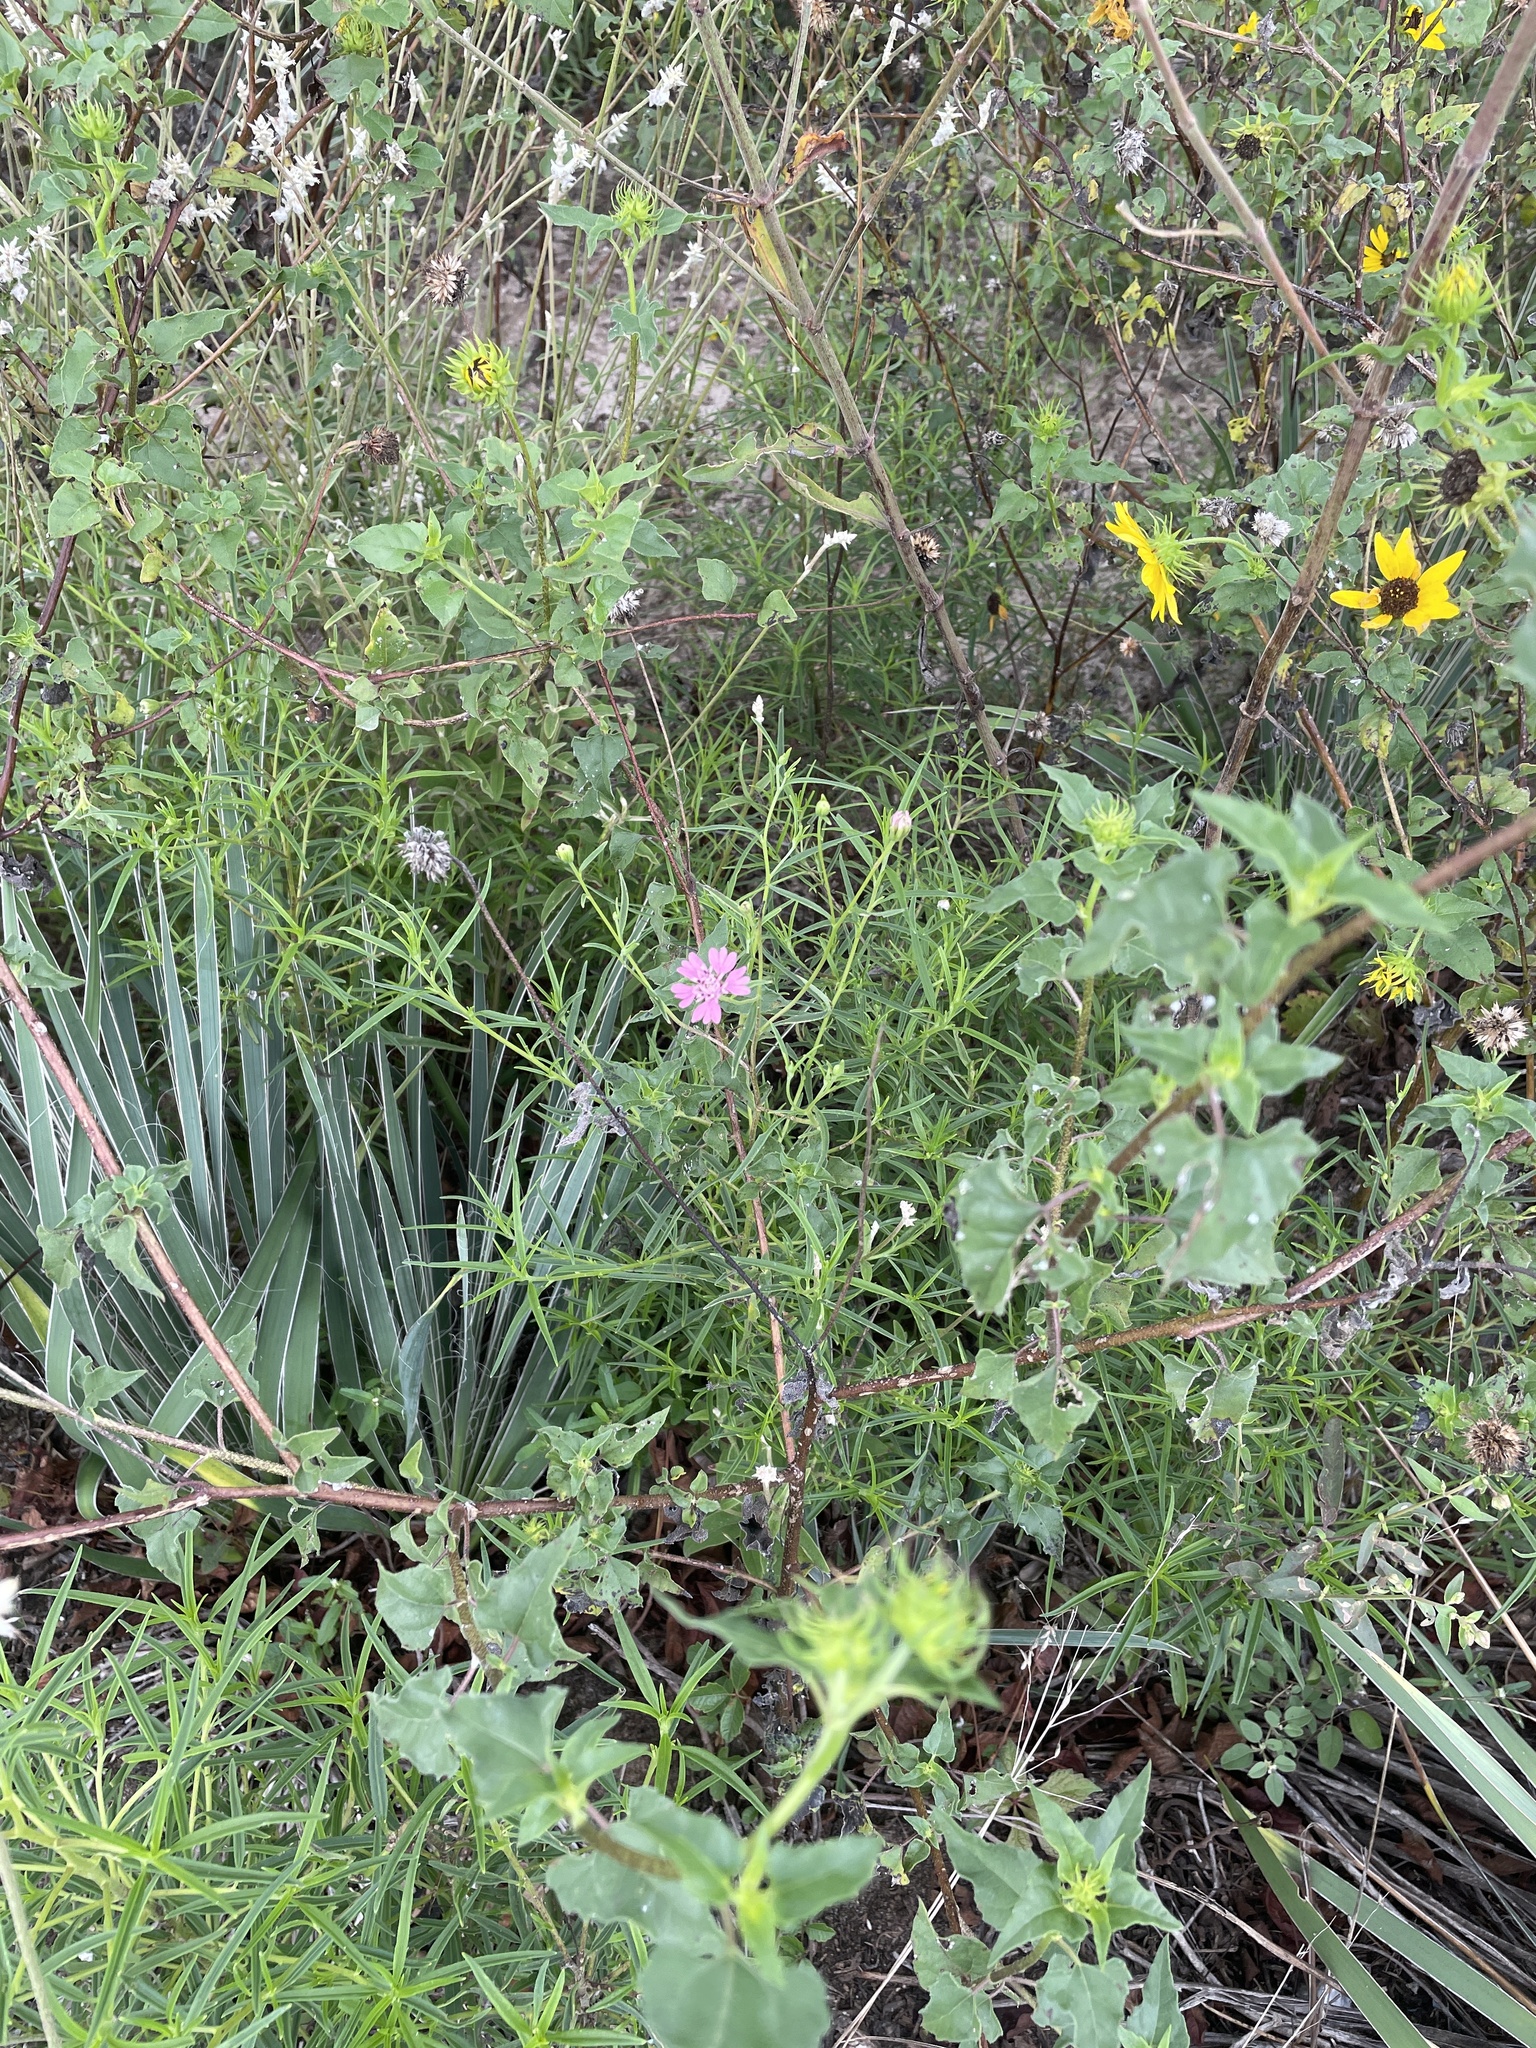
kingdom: Plantae
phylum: Tracheophyta
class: Magnoliopsida
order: Asterales
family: Asteraceae
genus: Palafoxia
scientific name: Palafoxia hookeriana
